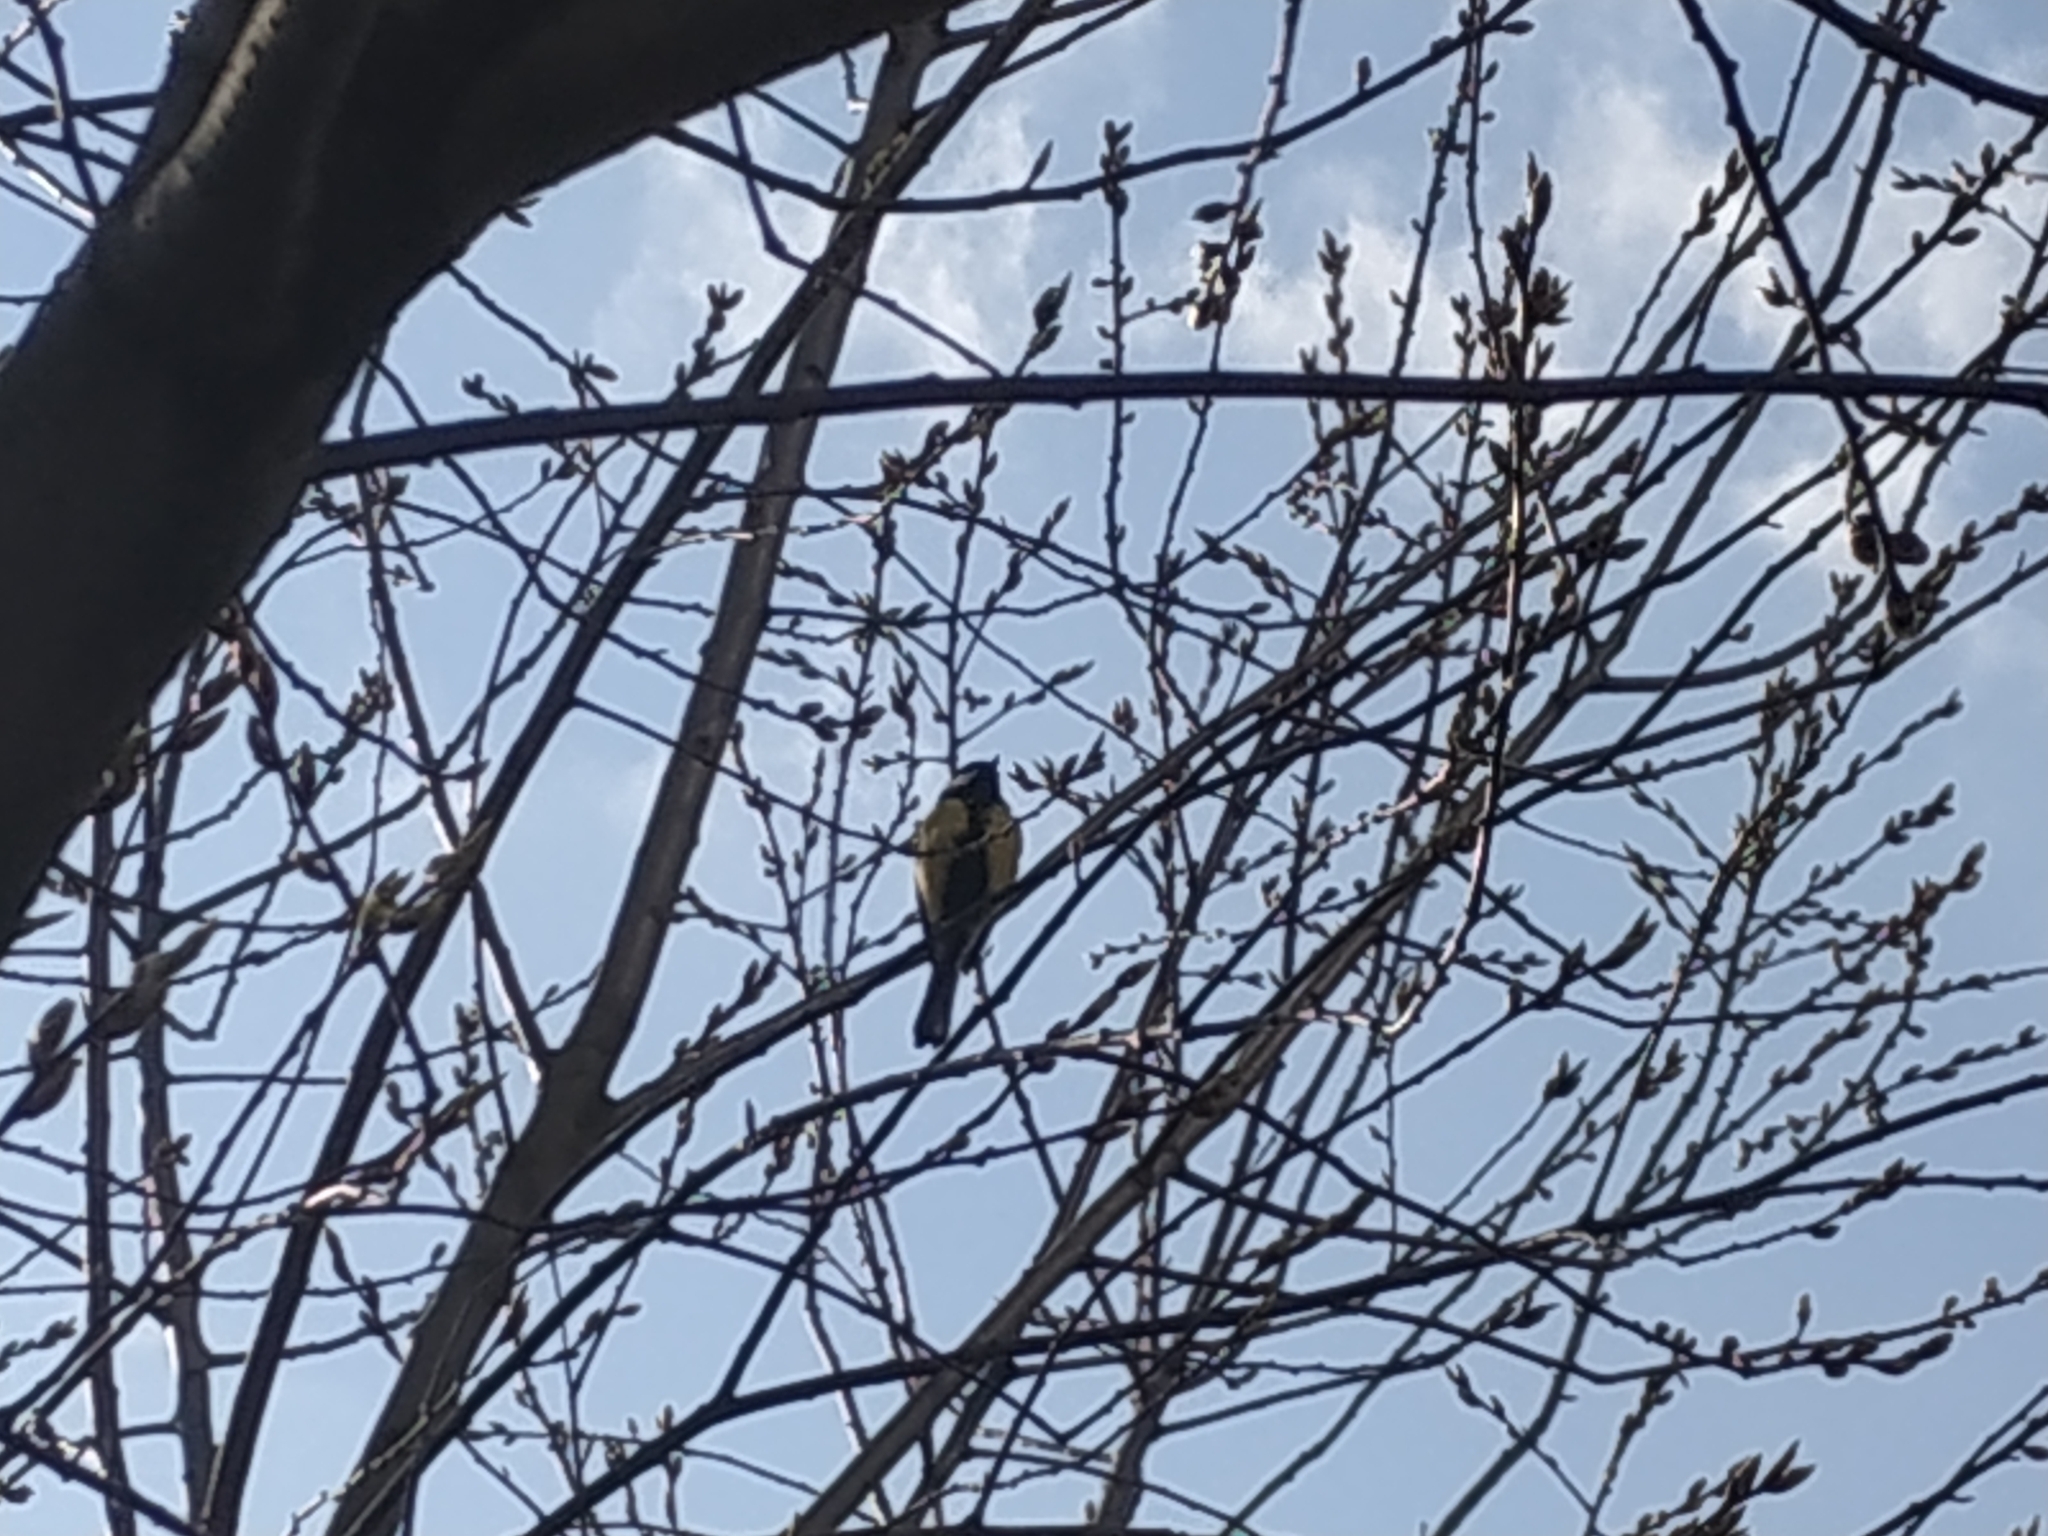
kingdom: Animalia
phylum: Chordata
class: Aves
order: Passeriformes
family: Paridae
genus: Parus
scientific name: Parus major
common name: Great tit
